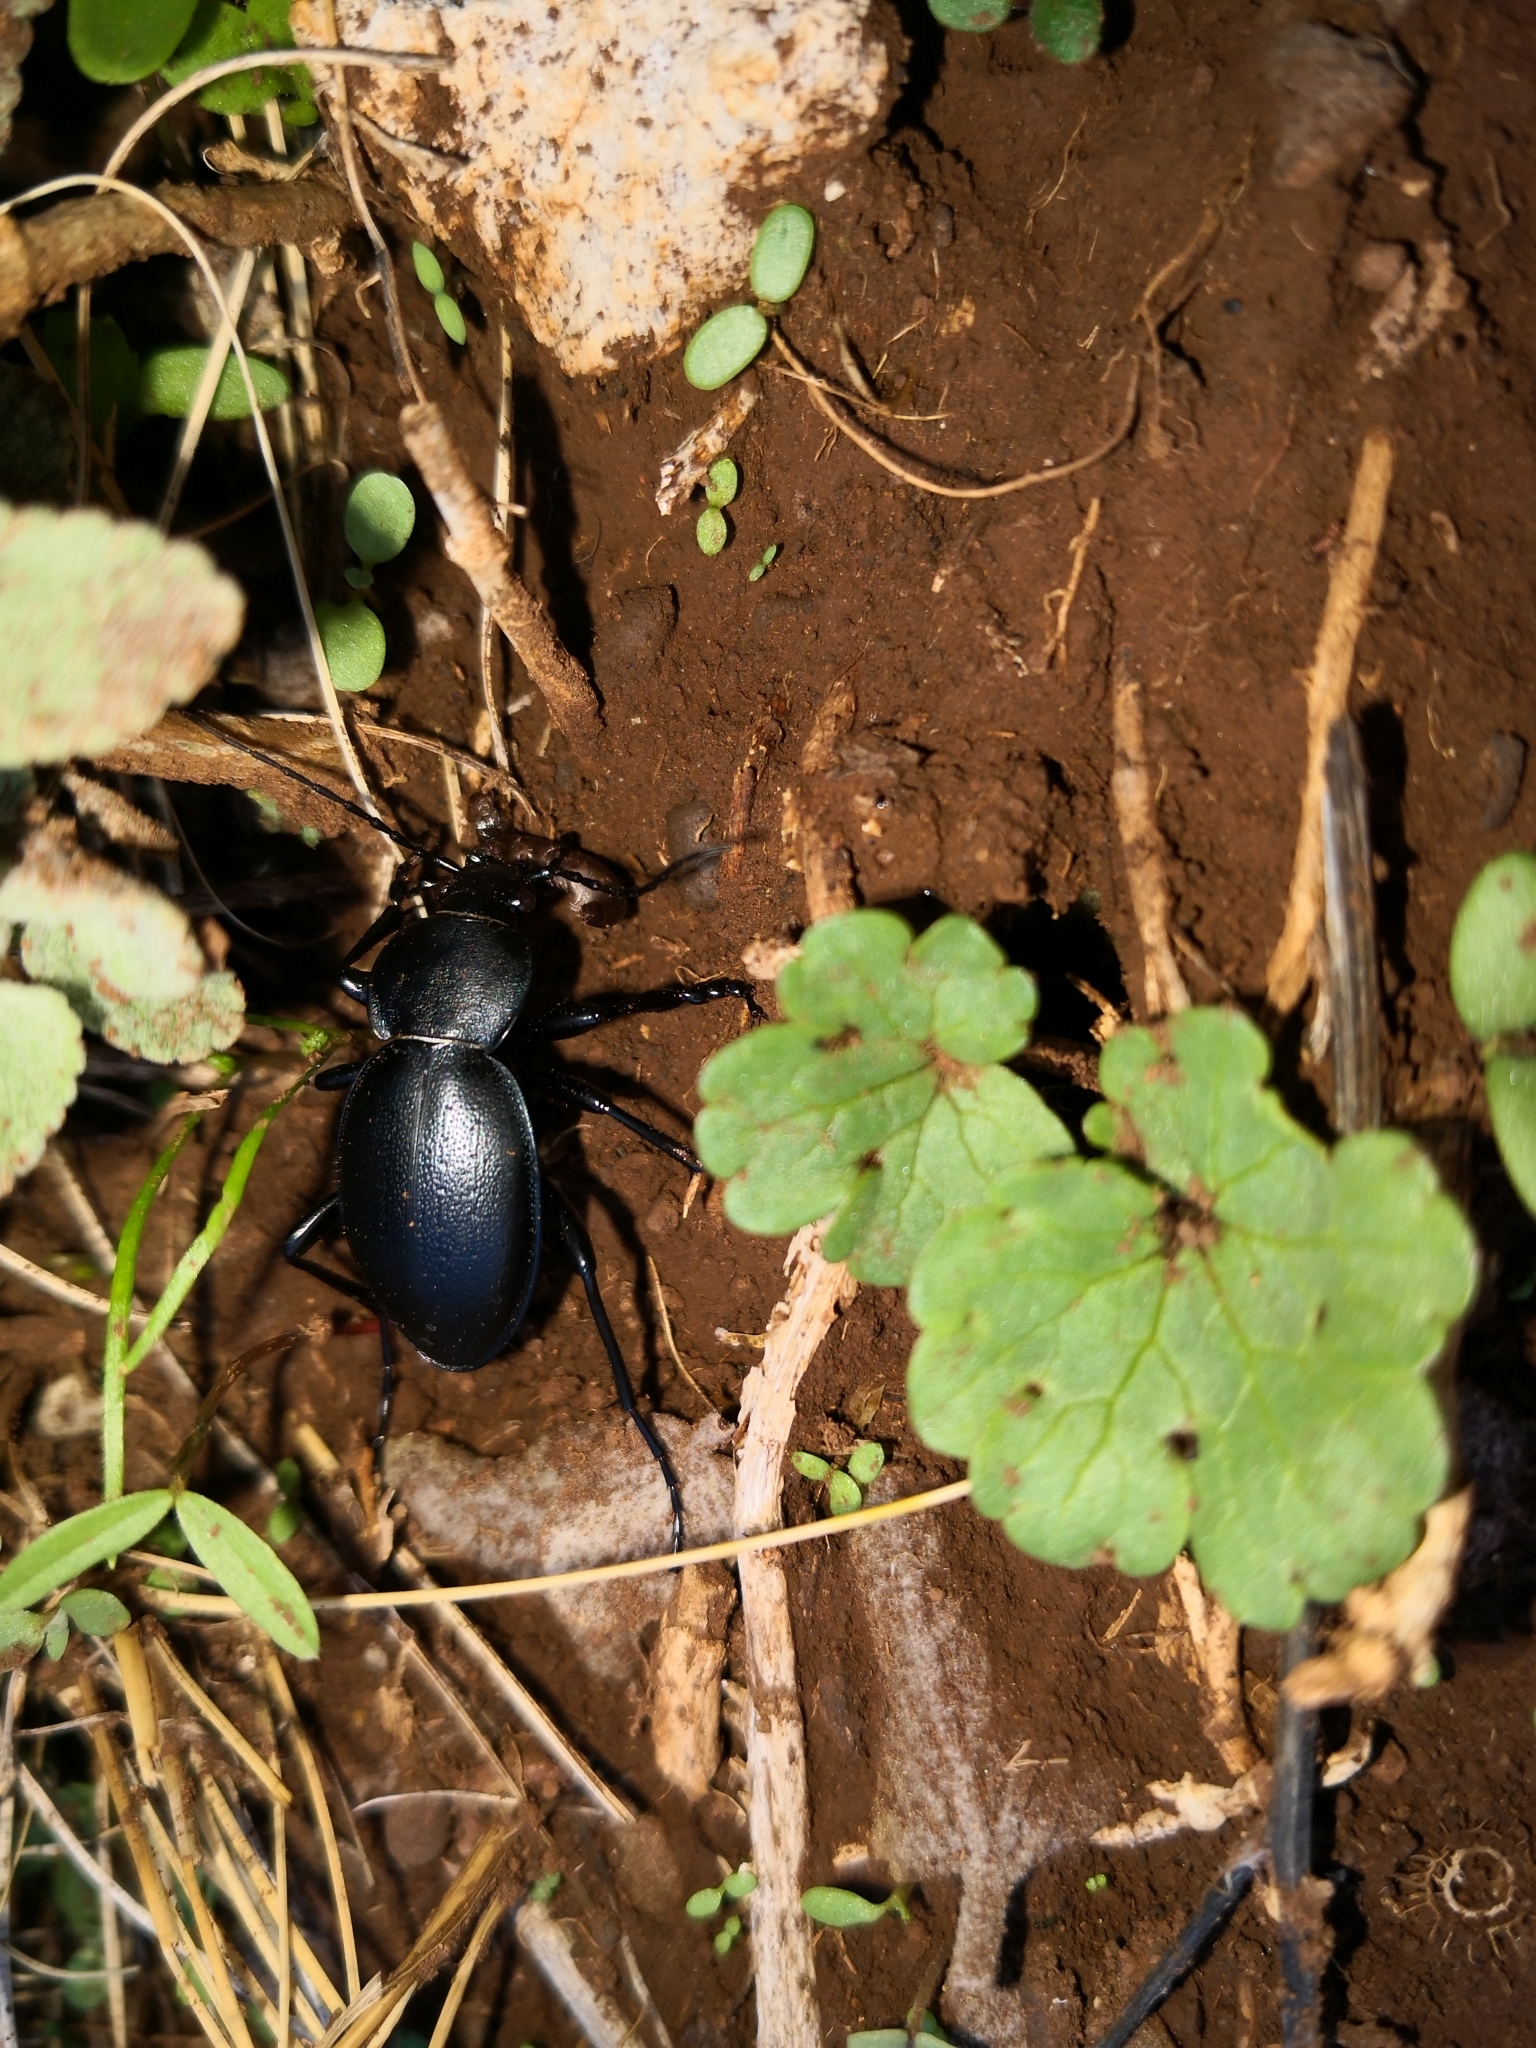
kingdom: Animalia
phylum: Arthropoda
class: Insecta
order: Coleoptera
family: Carabidae
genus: Carabus
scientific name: Carabus coriaceus
